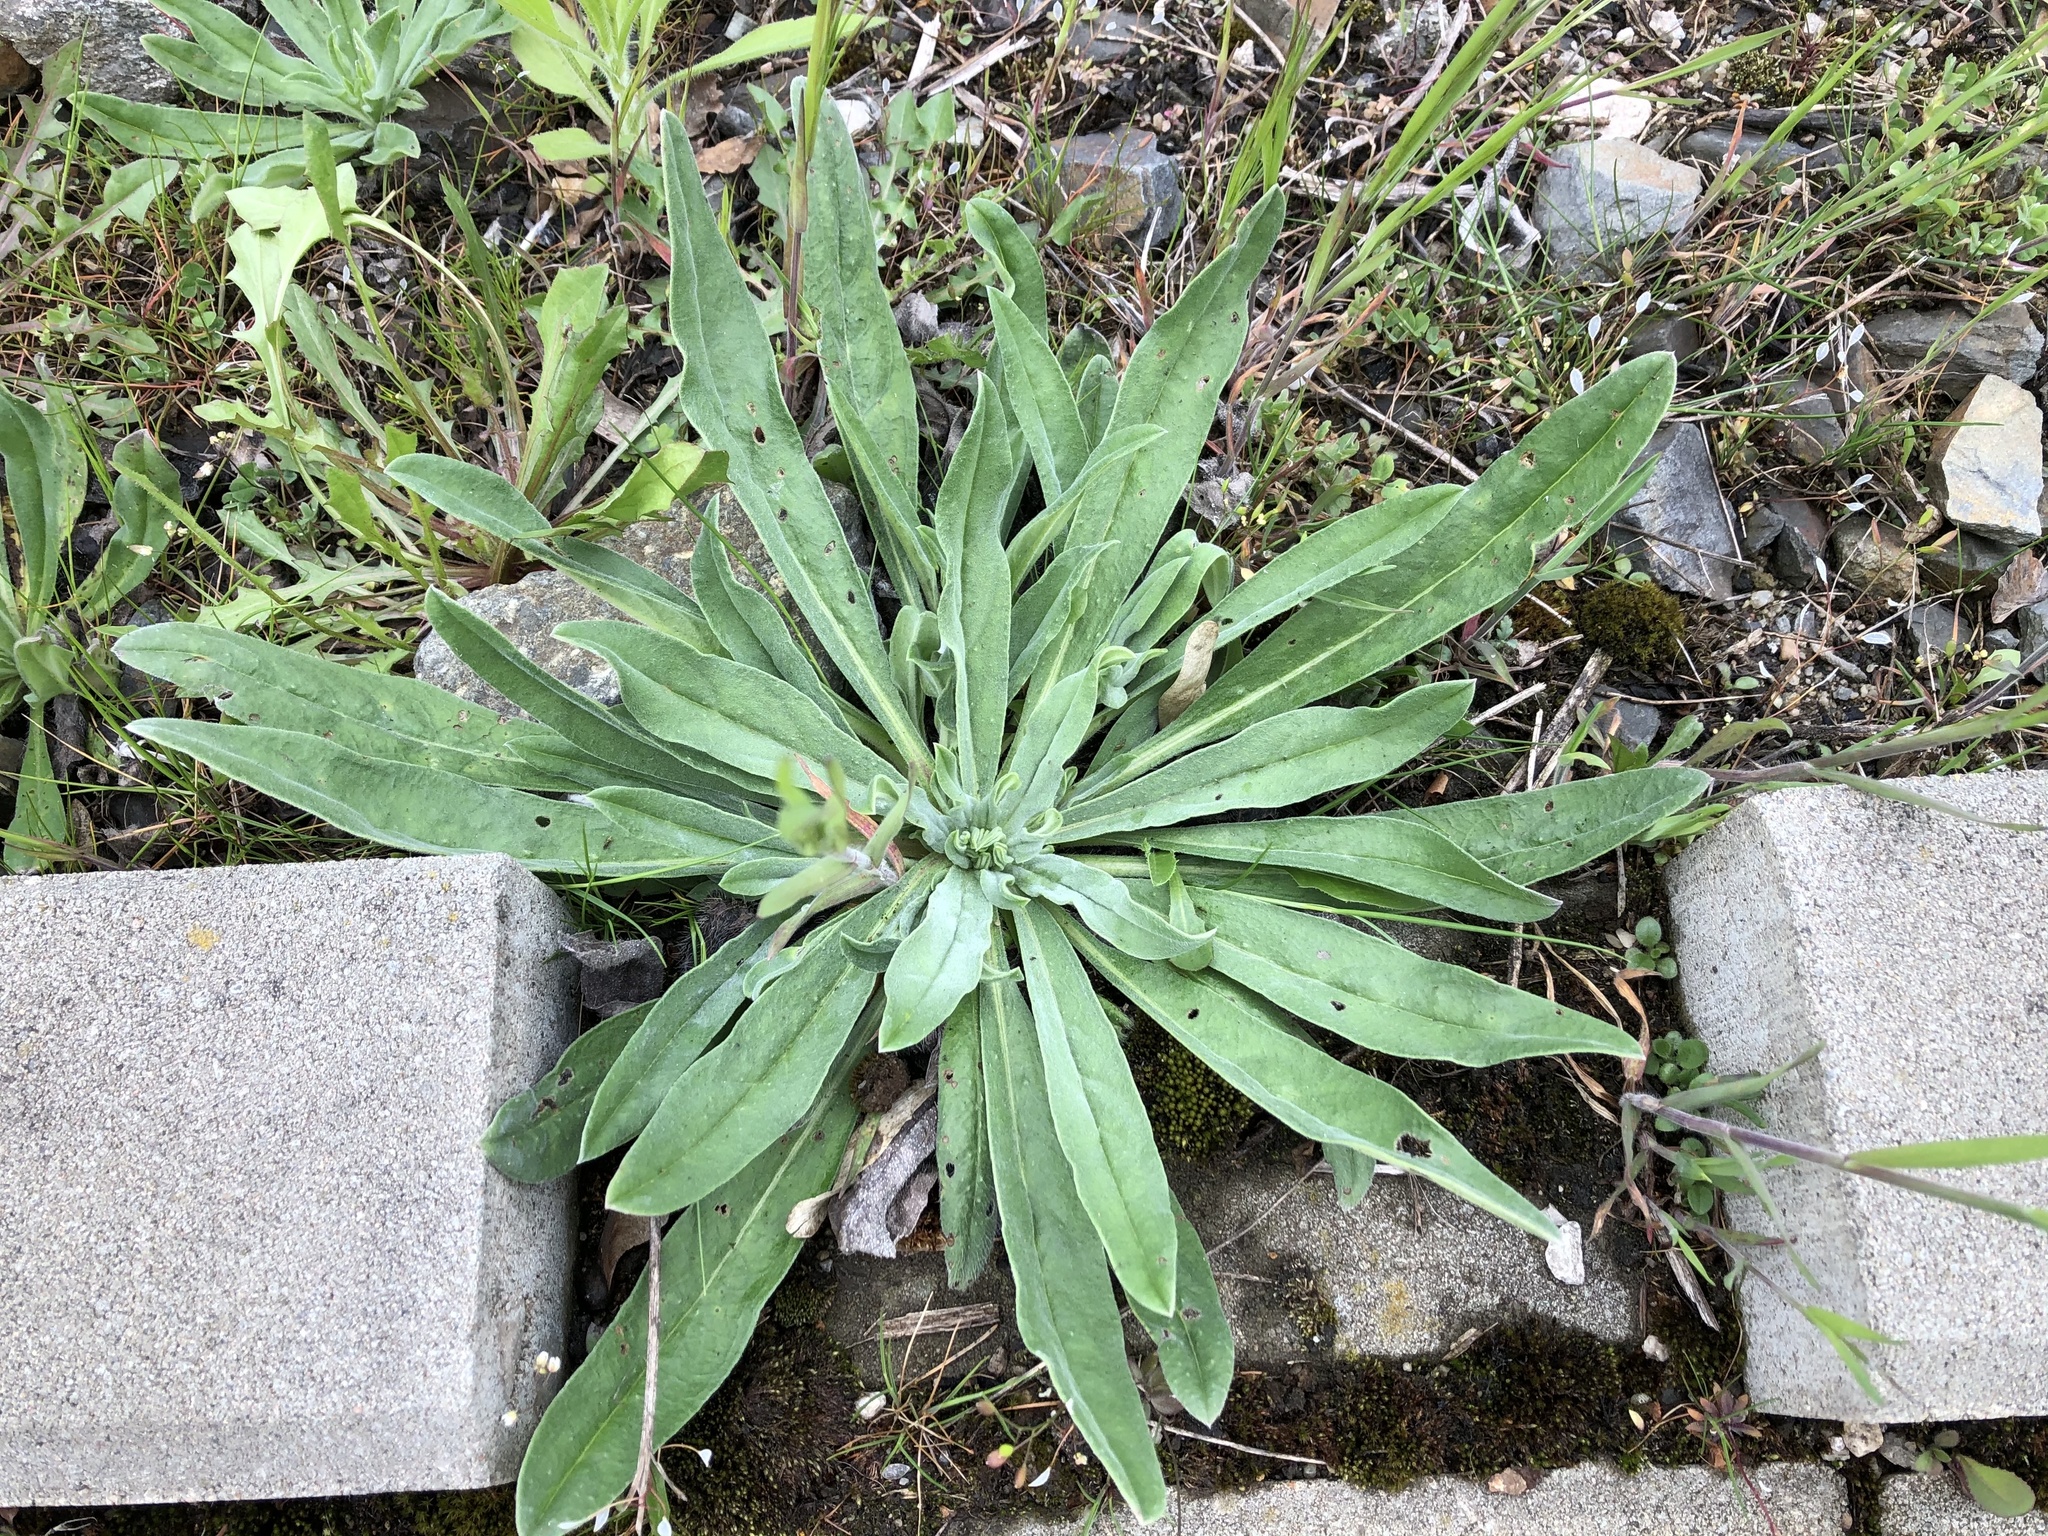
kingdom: Plantae
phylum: Tracheophyta
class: Magnoliopsida
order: Boraginales
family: Boraginaceae
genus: Echium
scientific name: Echium vulgare
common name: Common viper's bugloss
